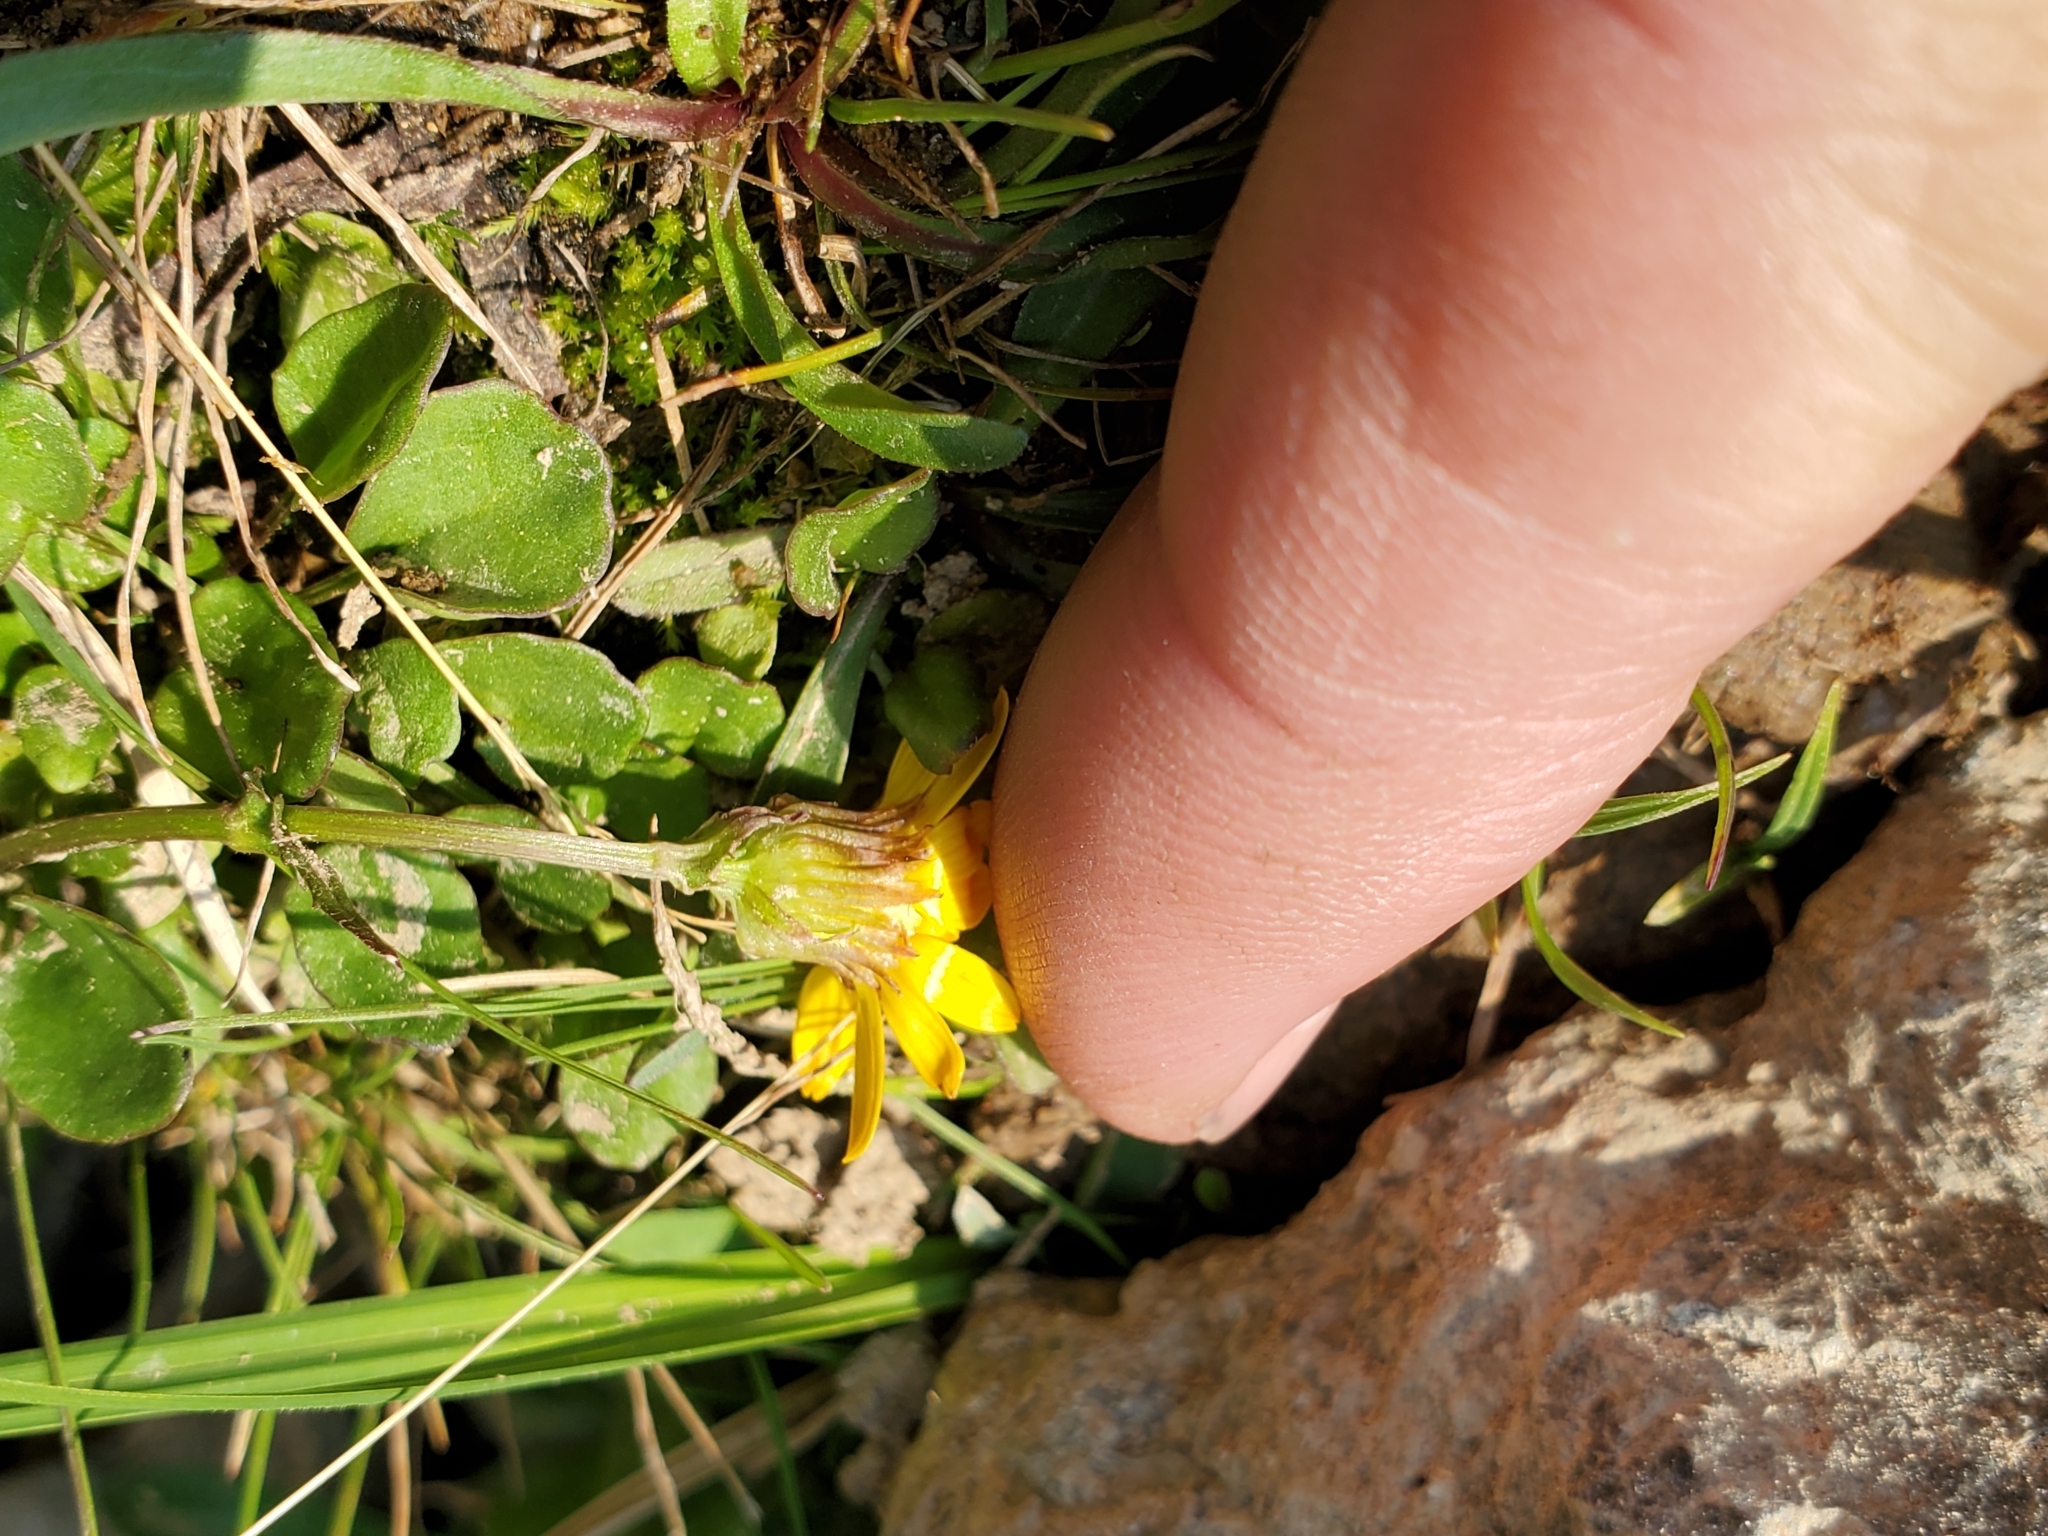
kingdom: Plantae
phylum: Tracheophyta
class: Magnoliopsida
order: Asterales
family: Asteraceae
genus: Packera
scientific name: Packera subnuda
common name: Buek's groundsel
